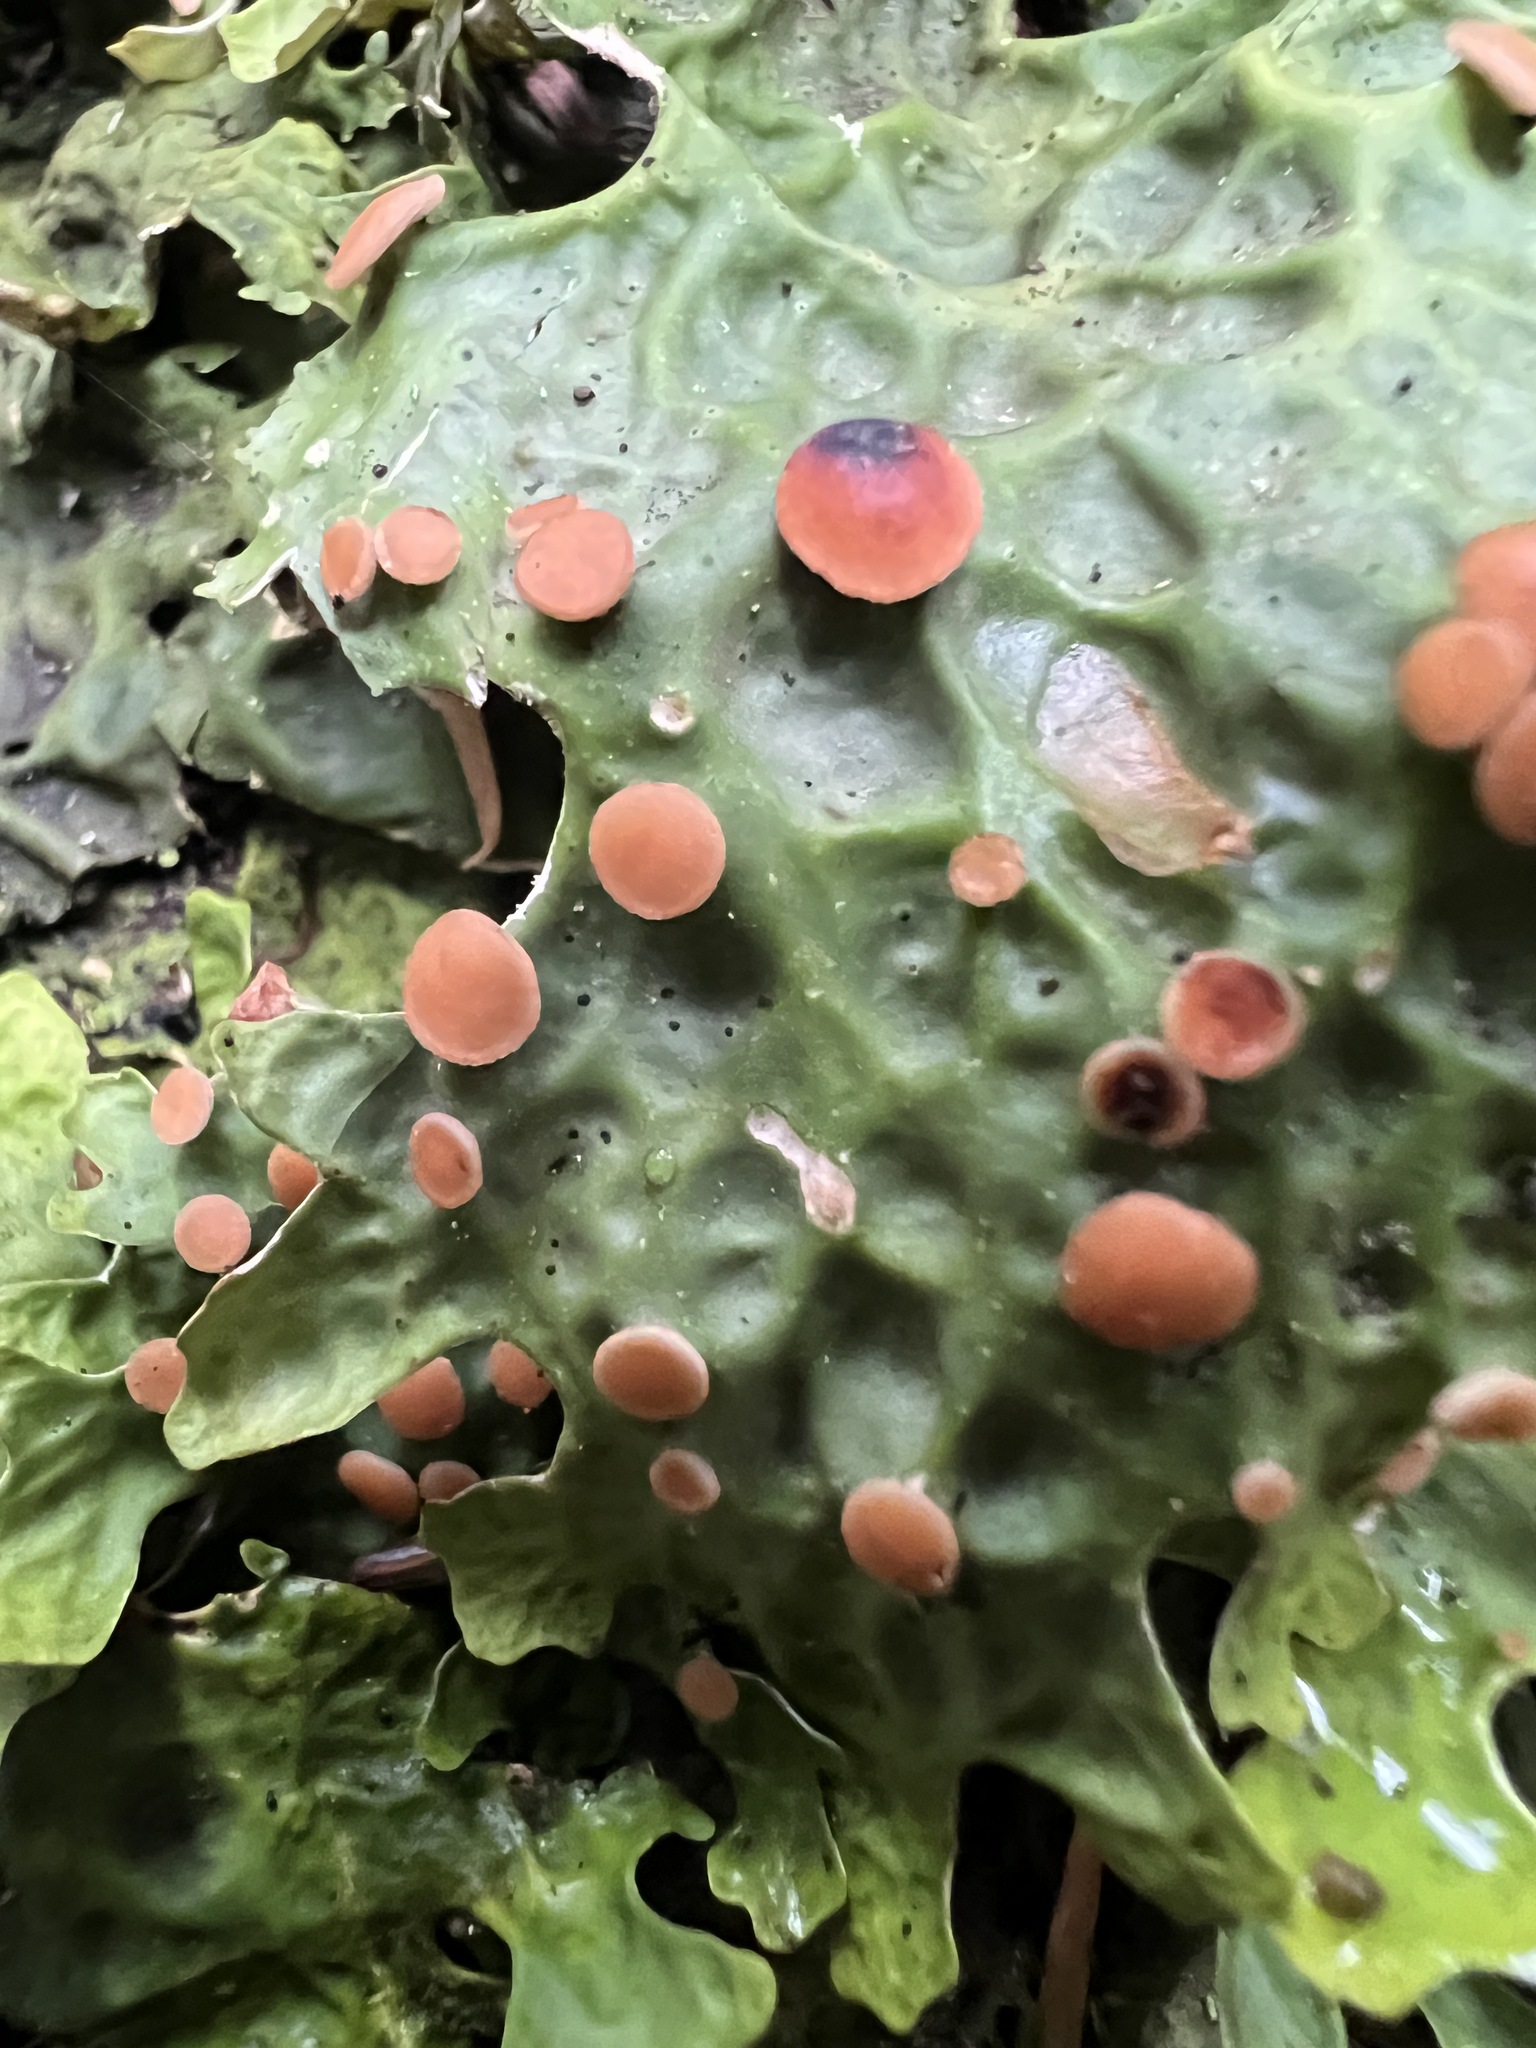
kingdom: Fungi
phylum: Ascomycota
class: Lecanoromycetes
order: Peltigerales
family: Lobariaceae
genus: Lobaria
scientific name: Lobaria linita
